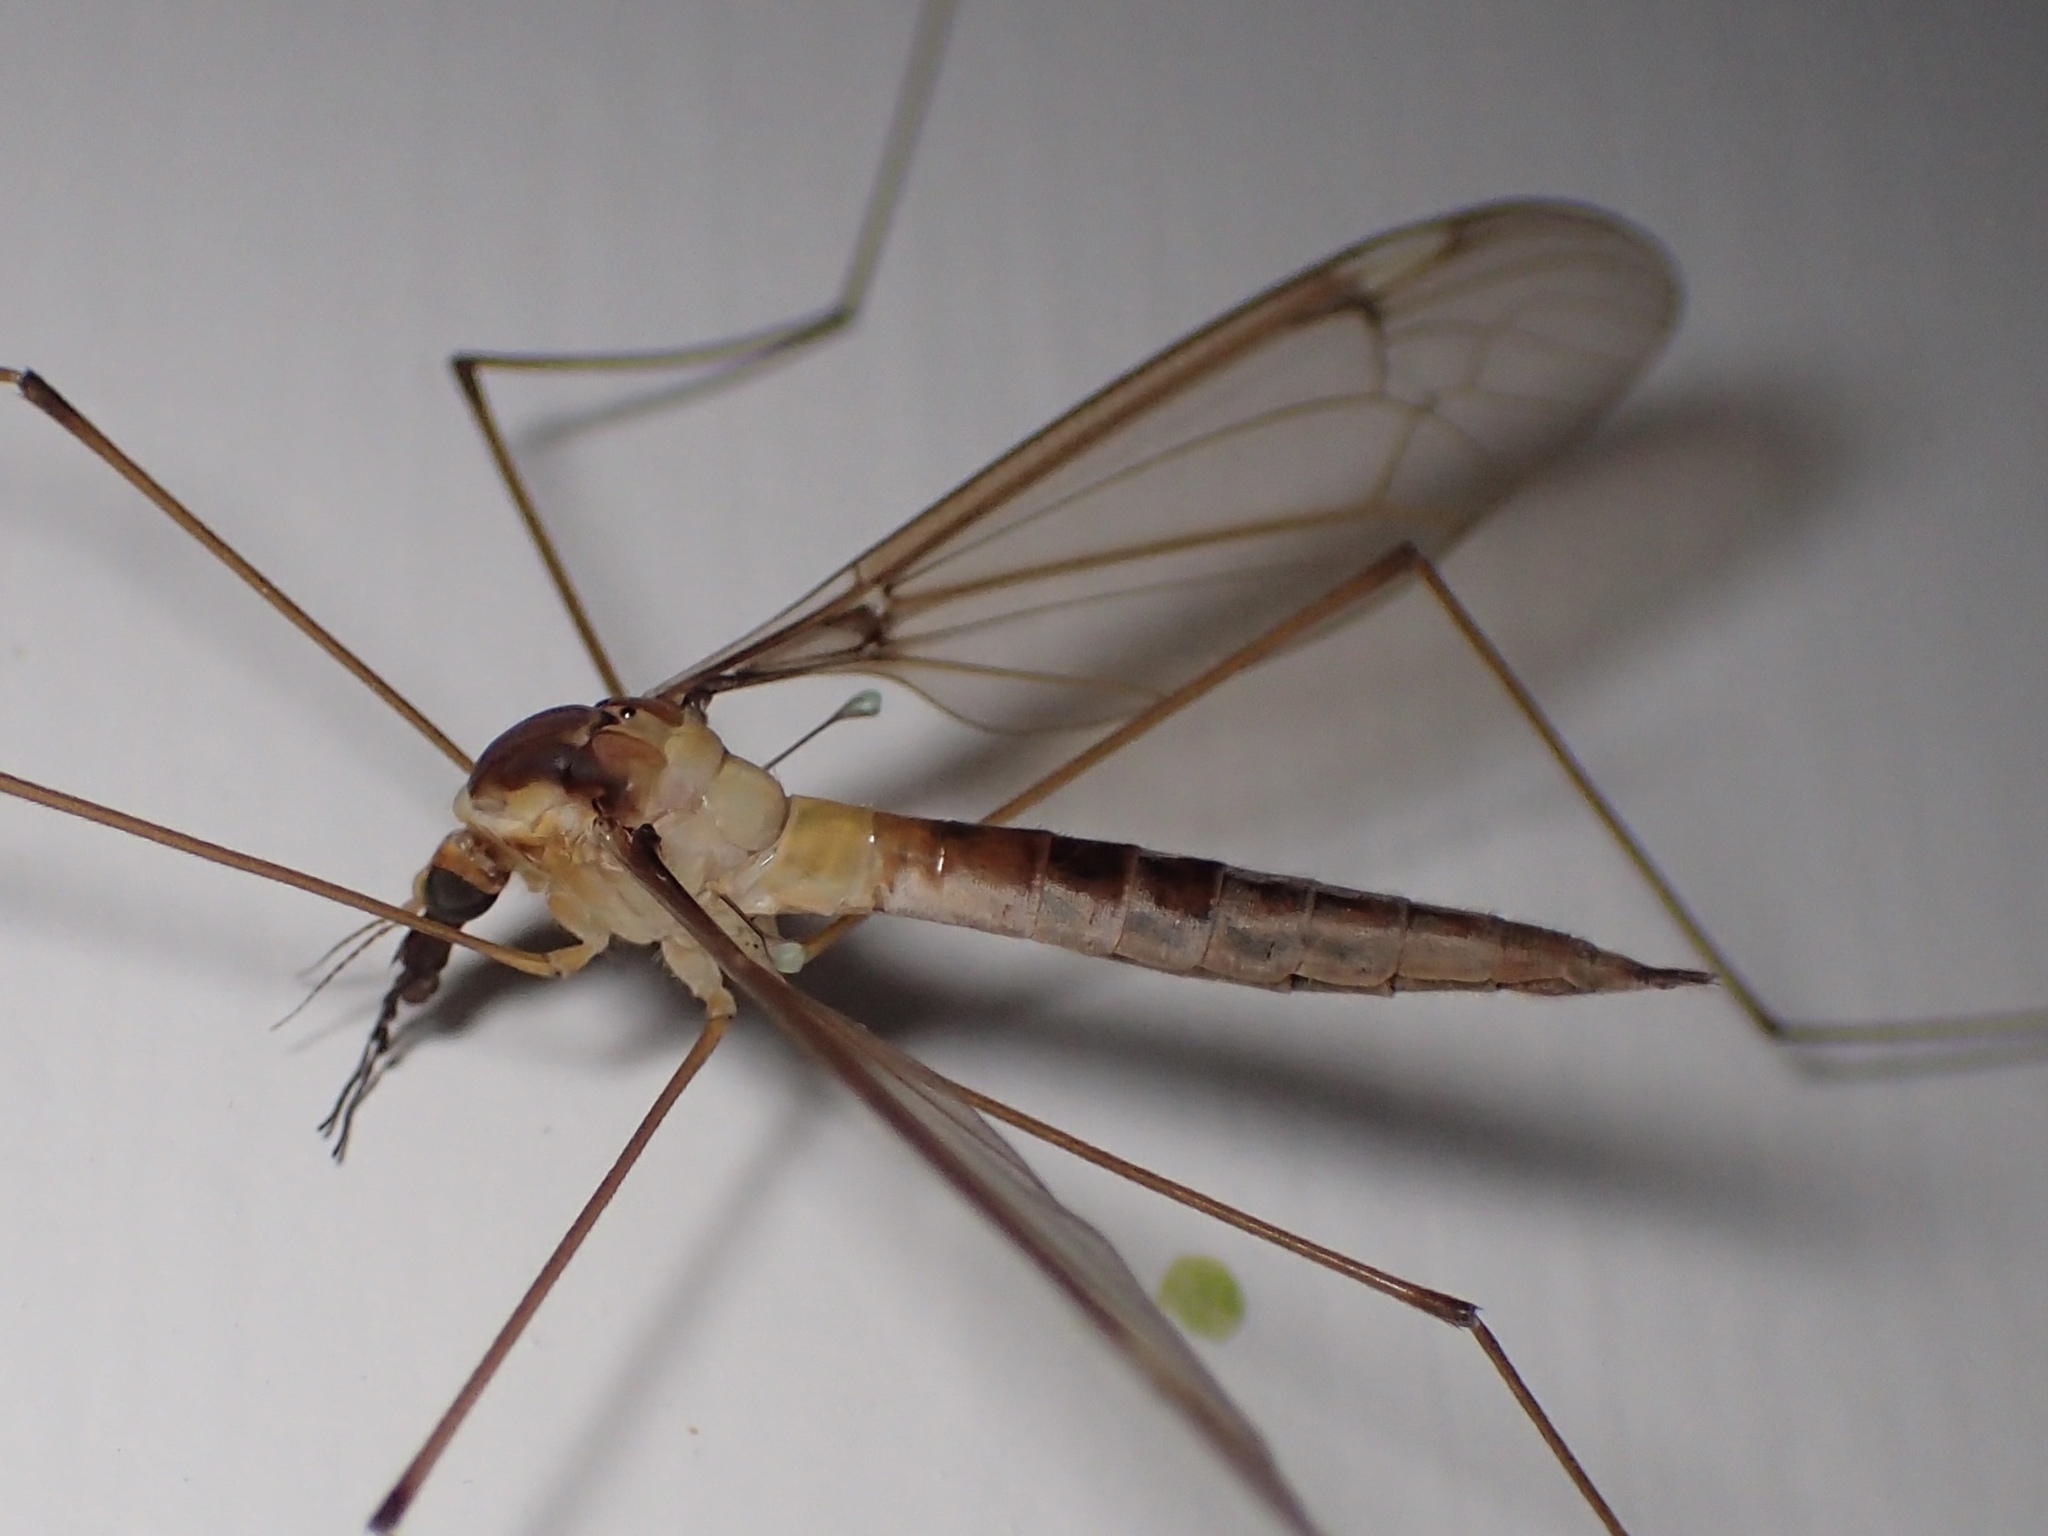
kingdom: Animalia
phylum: Arthropoda
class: Insecta
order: Diptera
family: Tipulidae
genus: Leptotarsus
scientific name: Leptotarsus albistigma
